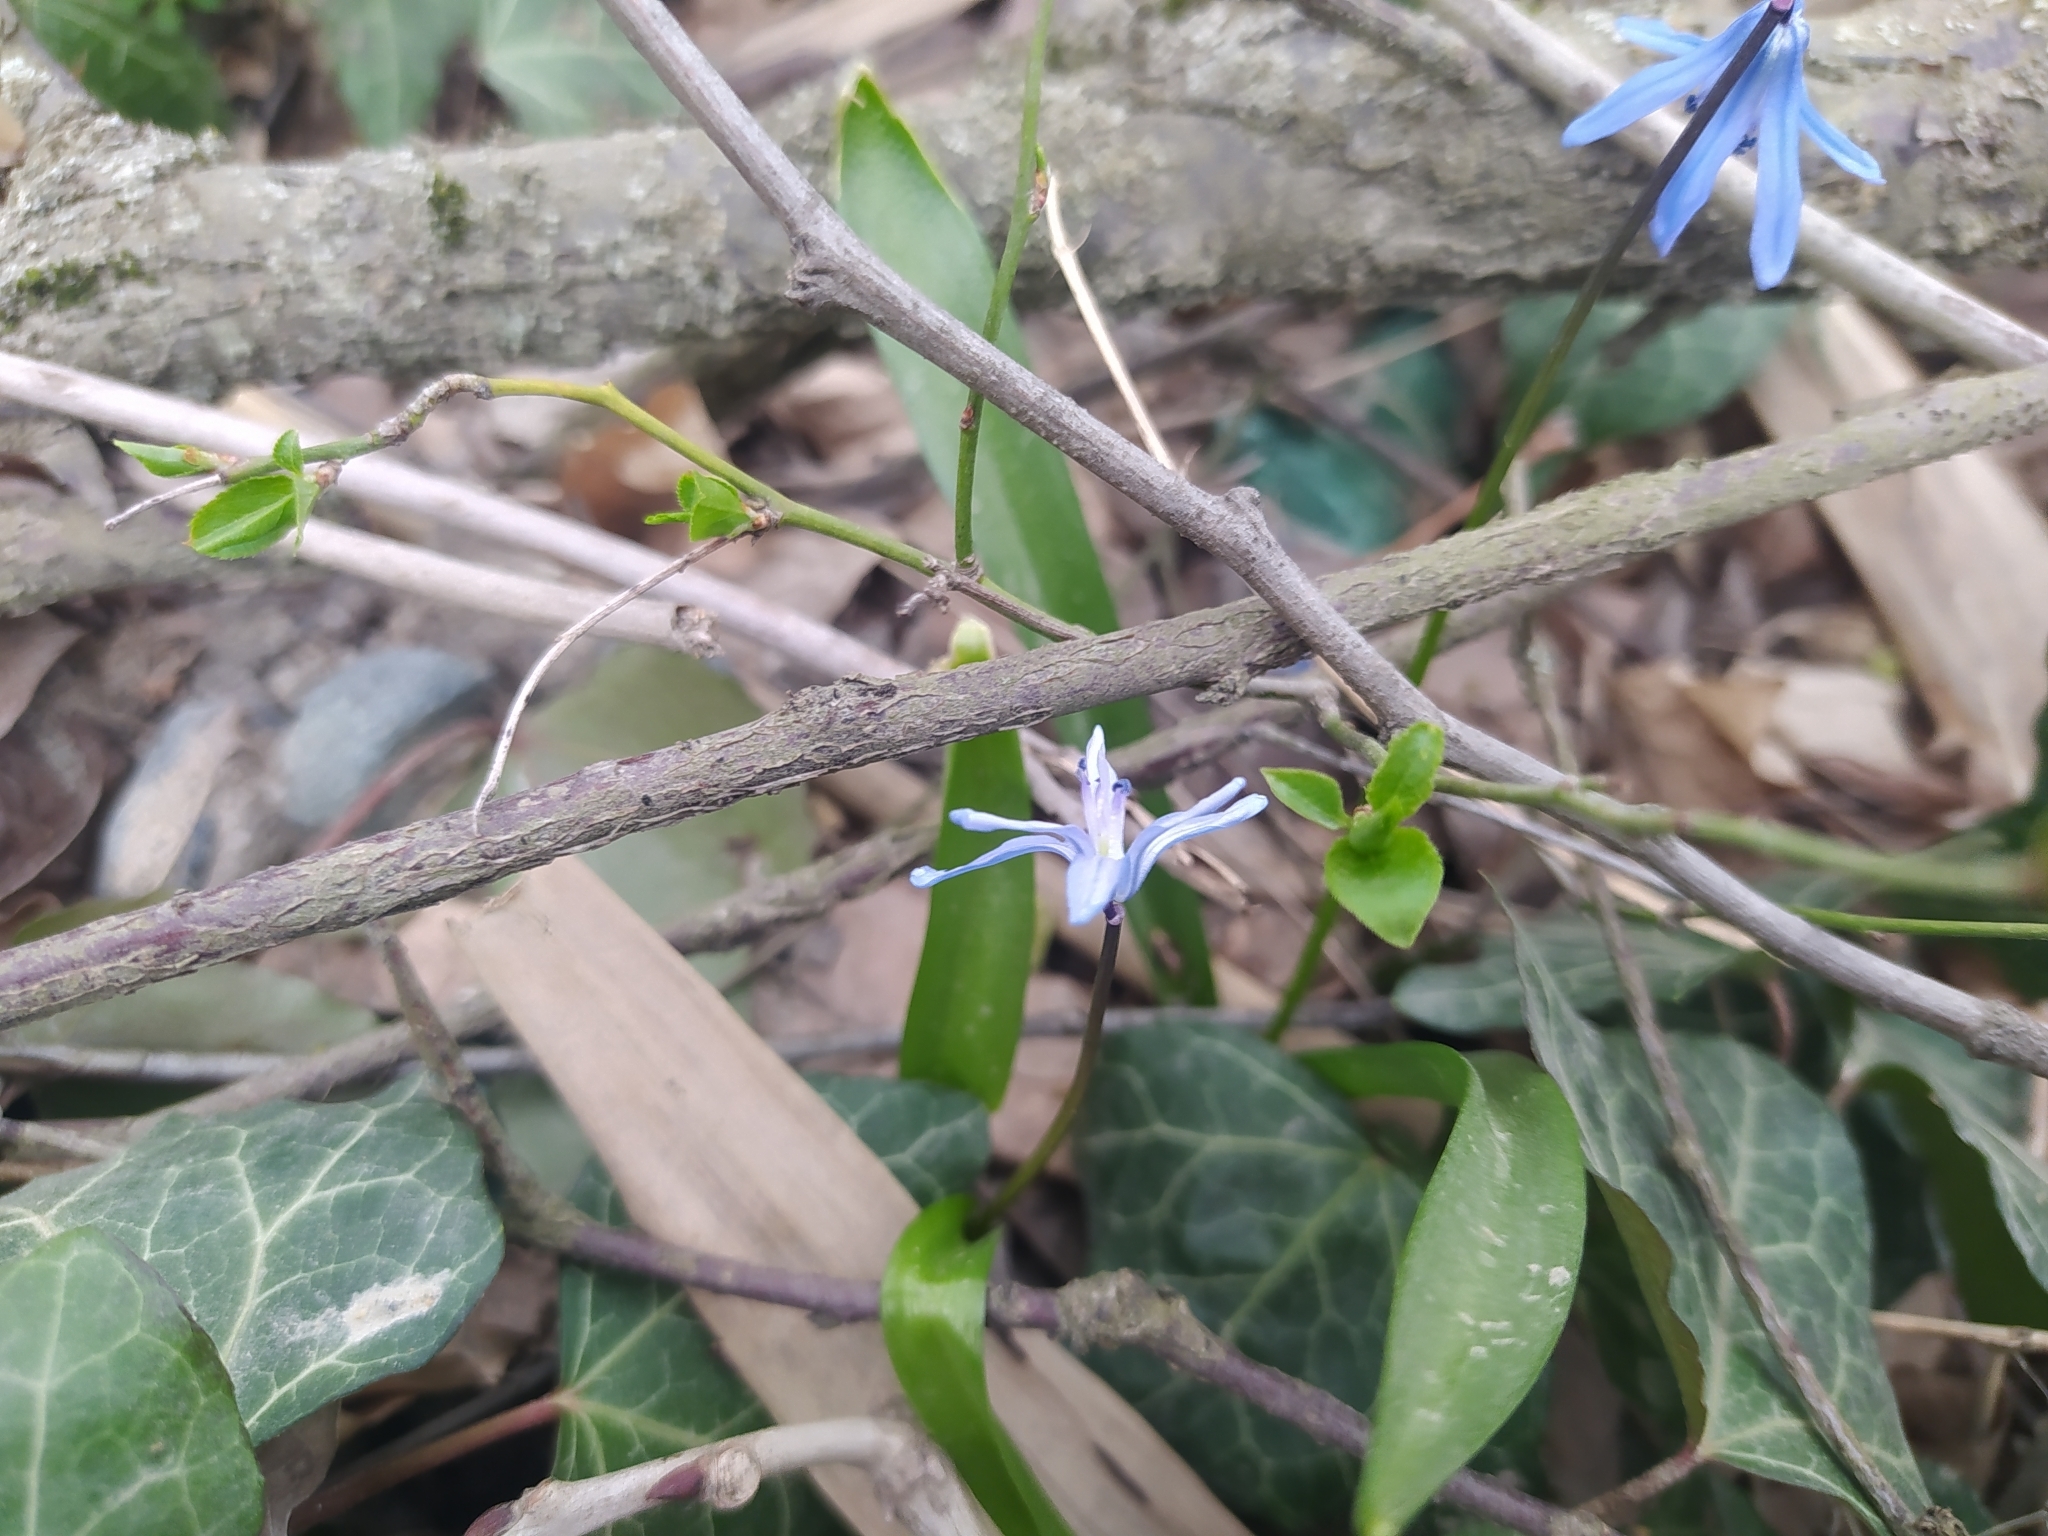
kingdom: Plantae
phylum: Tracheophyta
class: Liliopsida
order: Asparagales
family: Asparagaceae
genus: Scilla
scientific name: Scilla siberica
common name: Siberian squill
